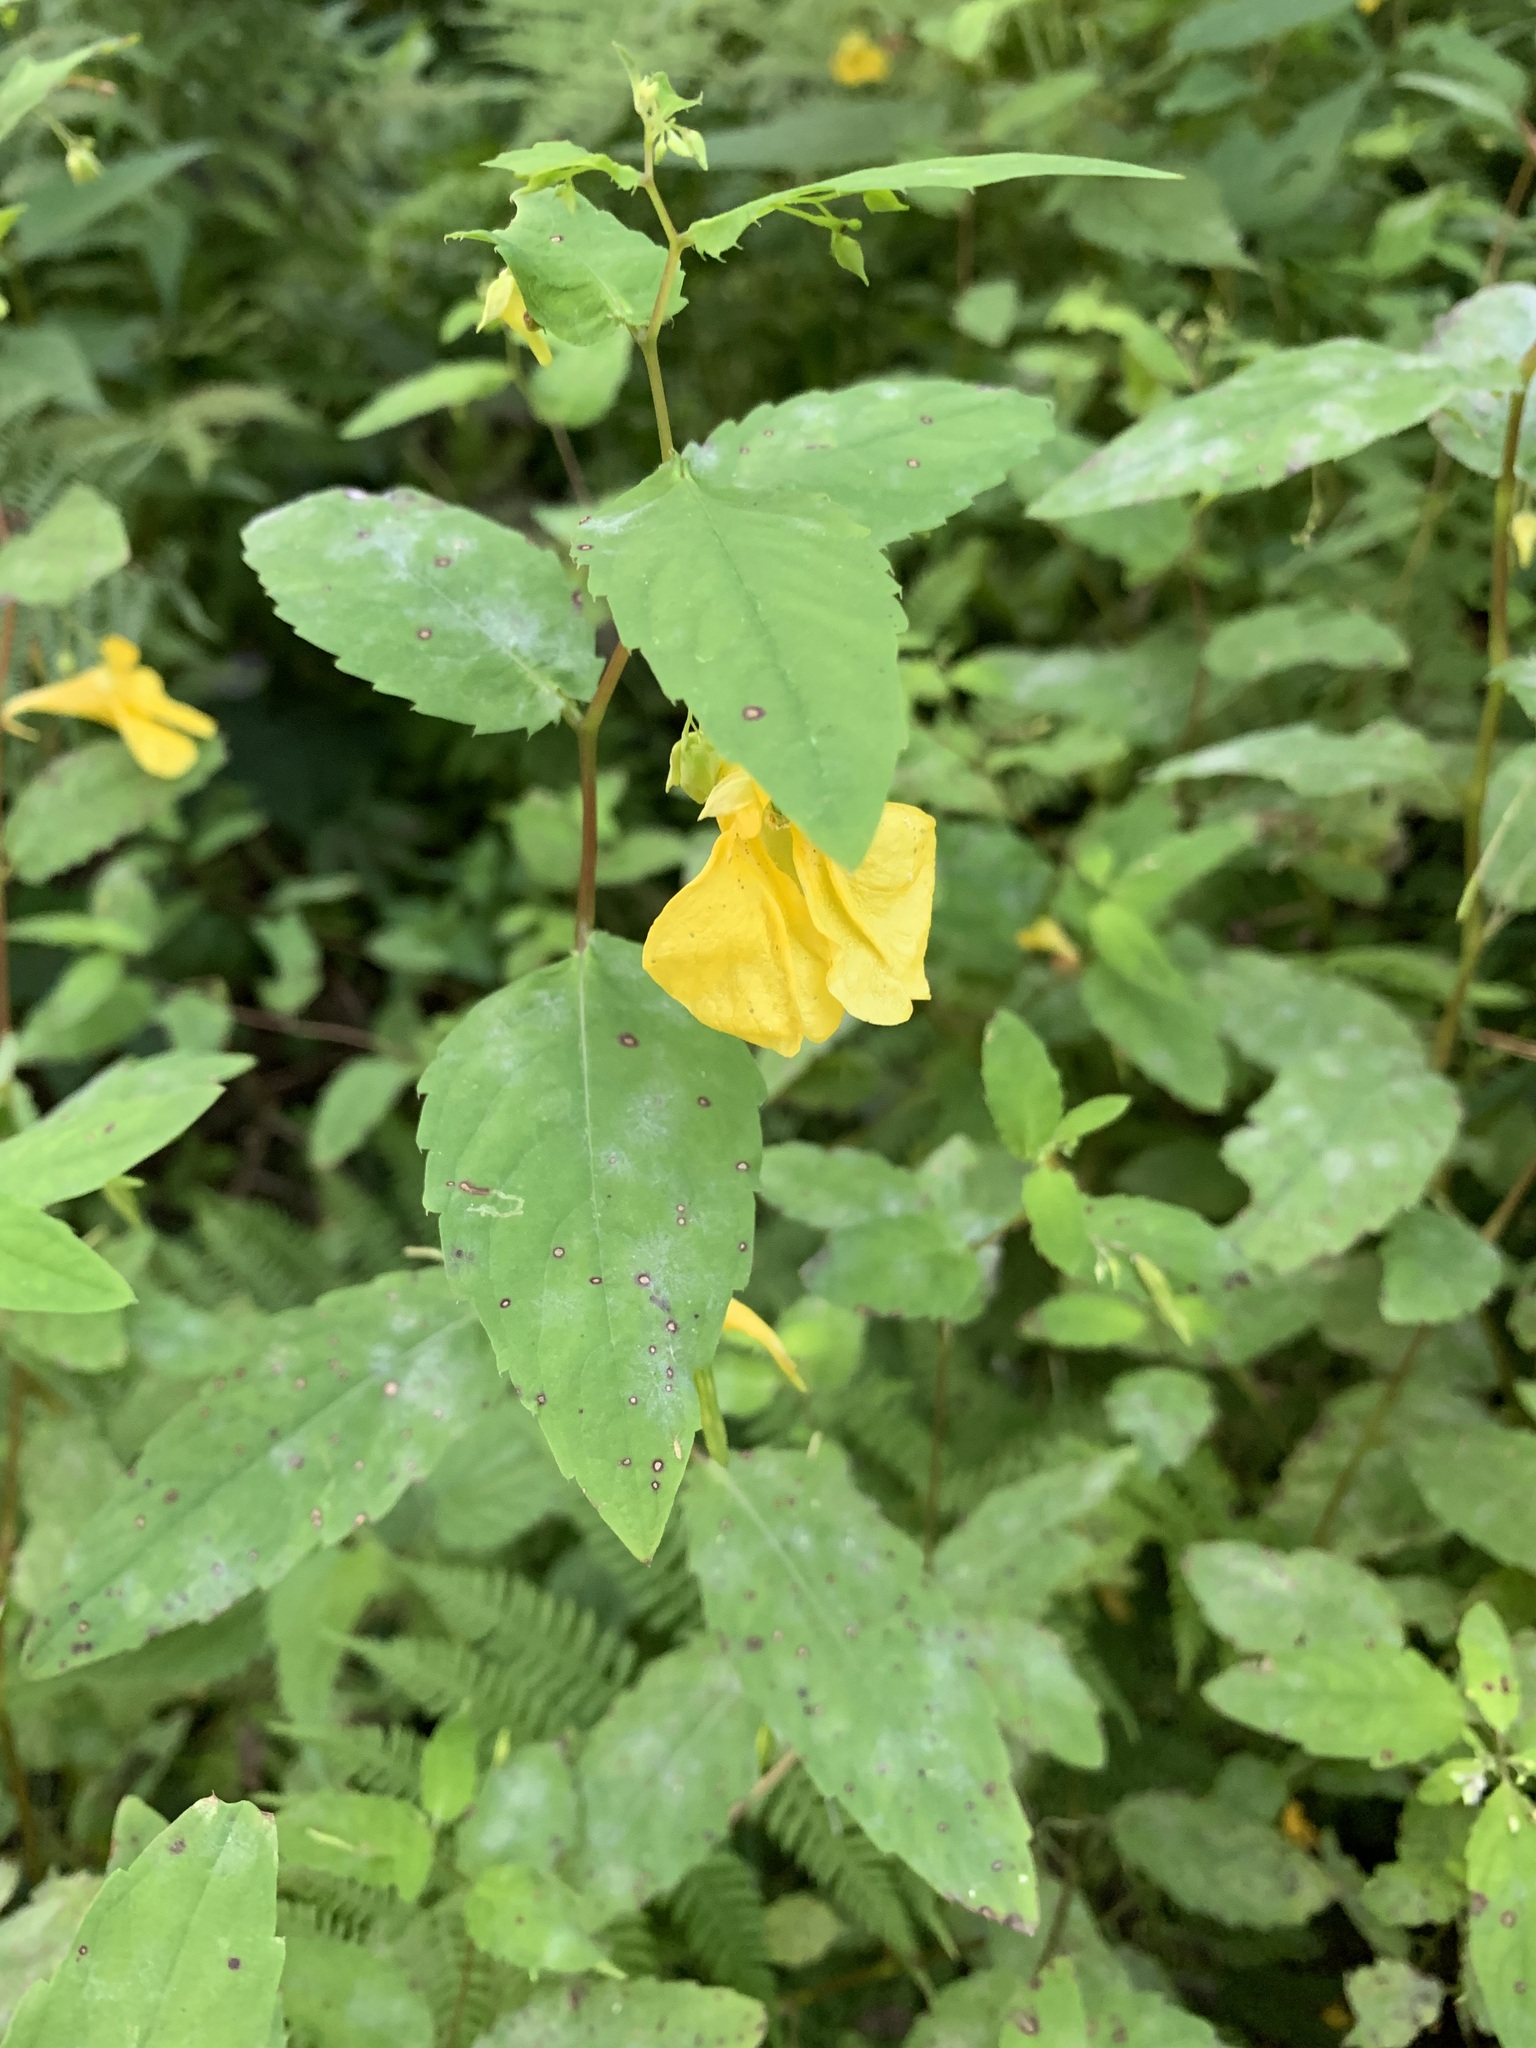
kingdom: Plantae
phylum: Tracheophyta
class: Magnoliopsida
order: Ericales
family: Balsaminaceae
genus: Impatiens
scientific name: Impatiens noli-tangere
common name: Touch-me-not balsam
